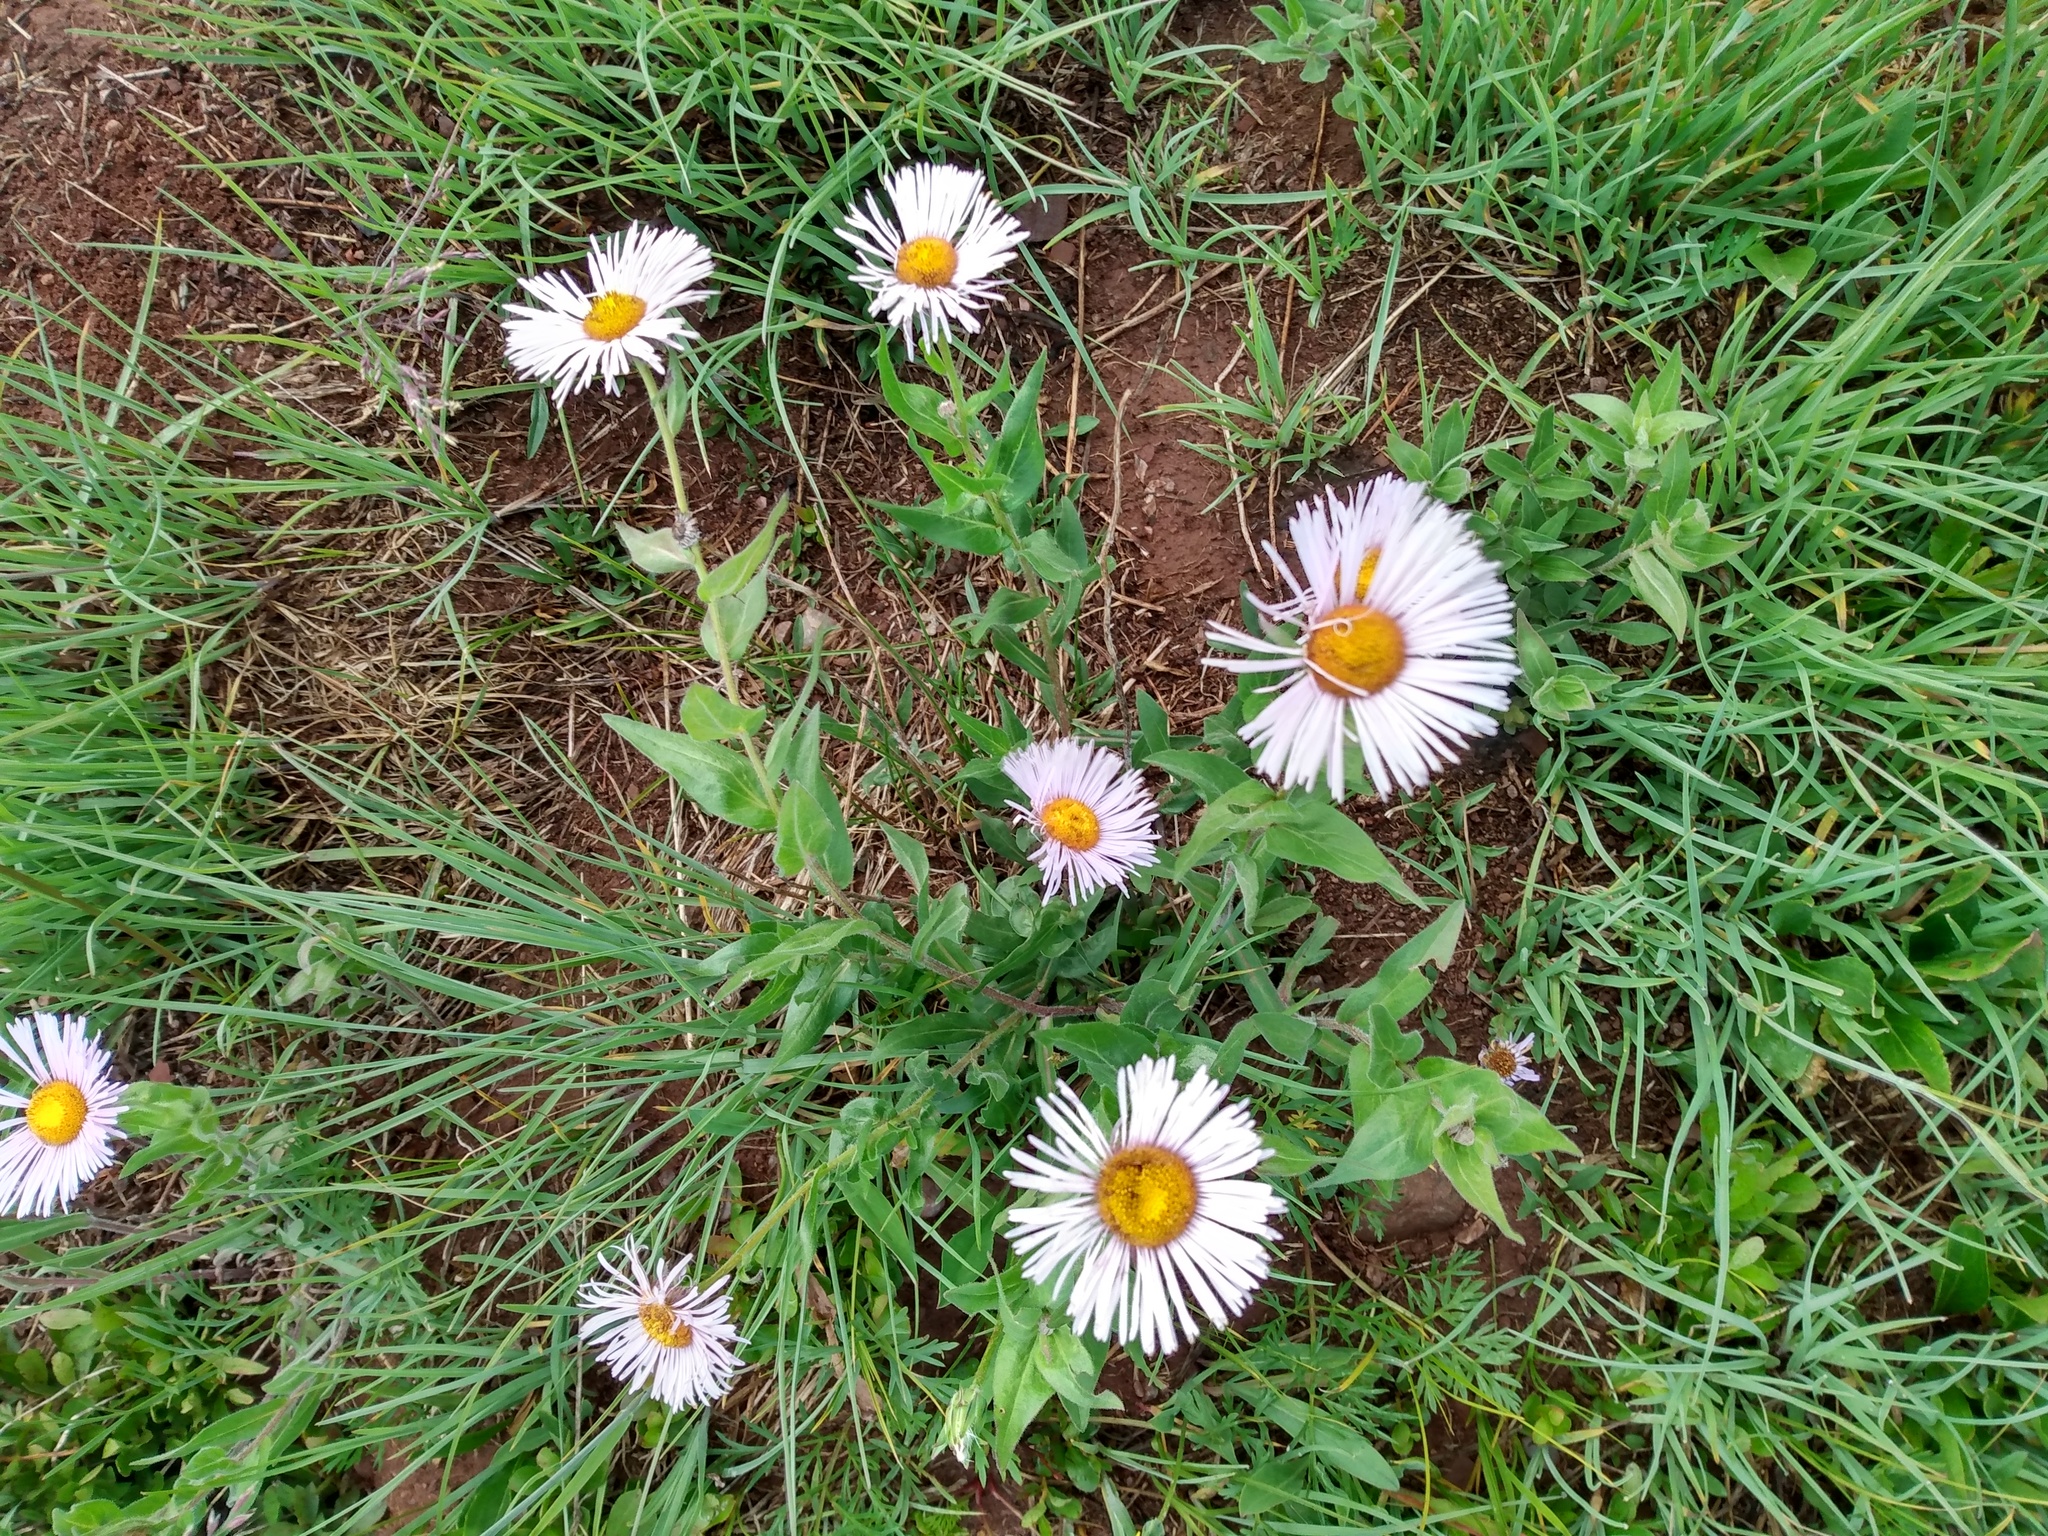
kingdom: Plantae
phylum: Tracheophyta
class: Magnoliopsida
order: Asterales
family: Asteraceae
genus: Erigeron
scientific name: Erigeron elatior
